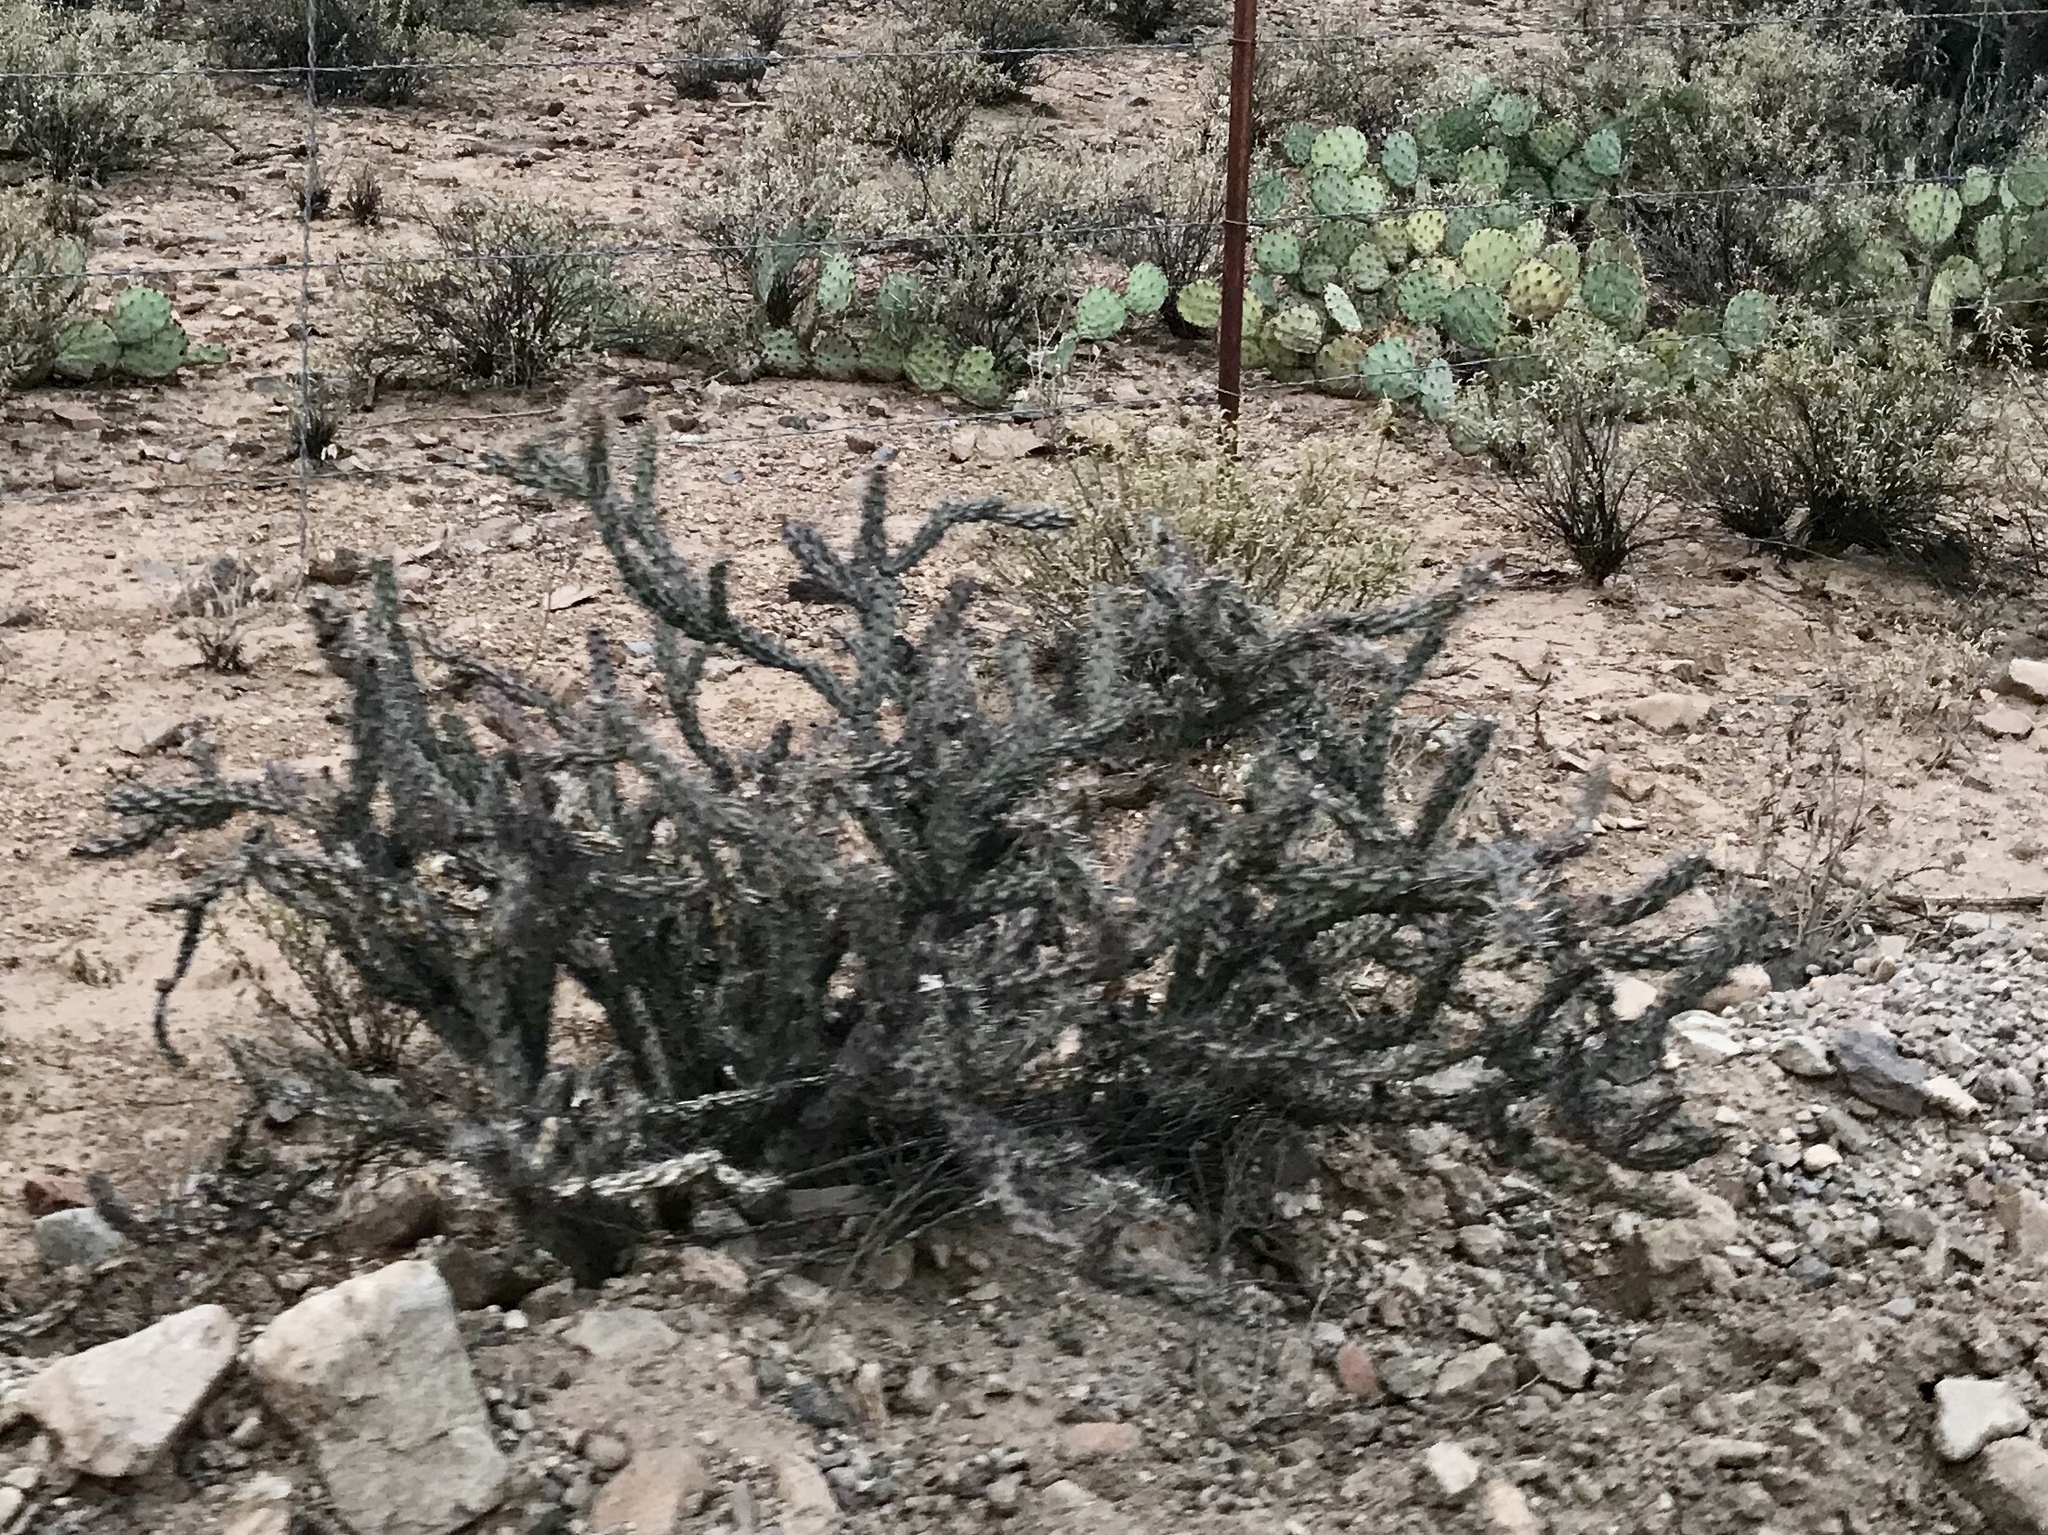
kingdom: Plantae
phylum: Tracheophyta
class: Magnoliopsida
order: Caryophyllales
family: Cactaceae
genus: Cylindropuntia
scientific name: Cylindropuntia thurberi
